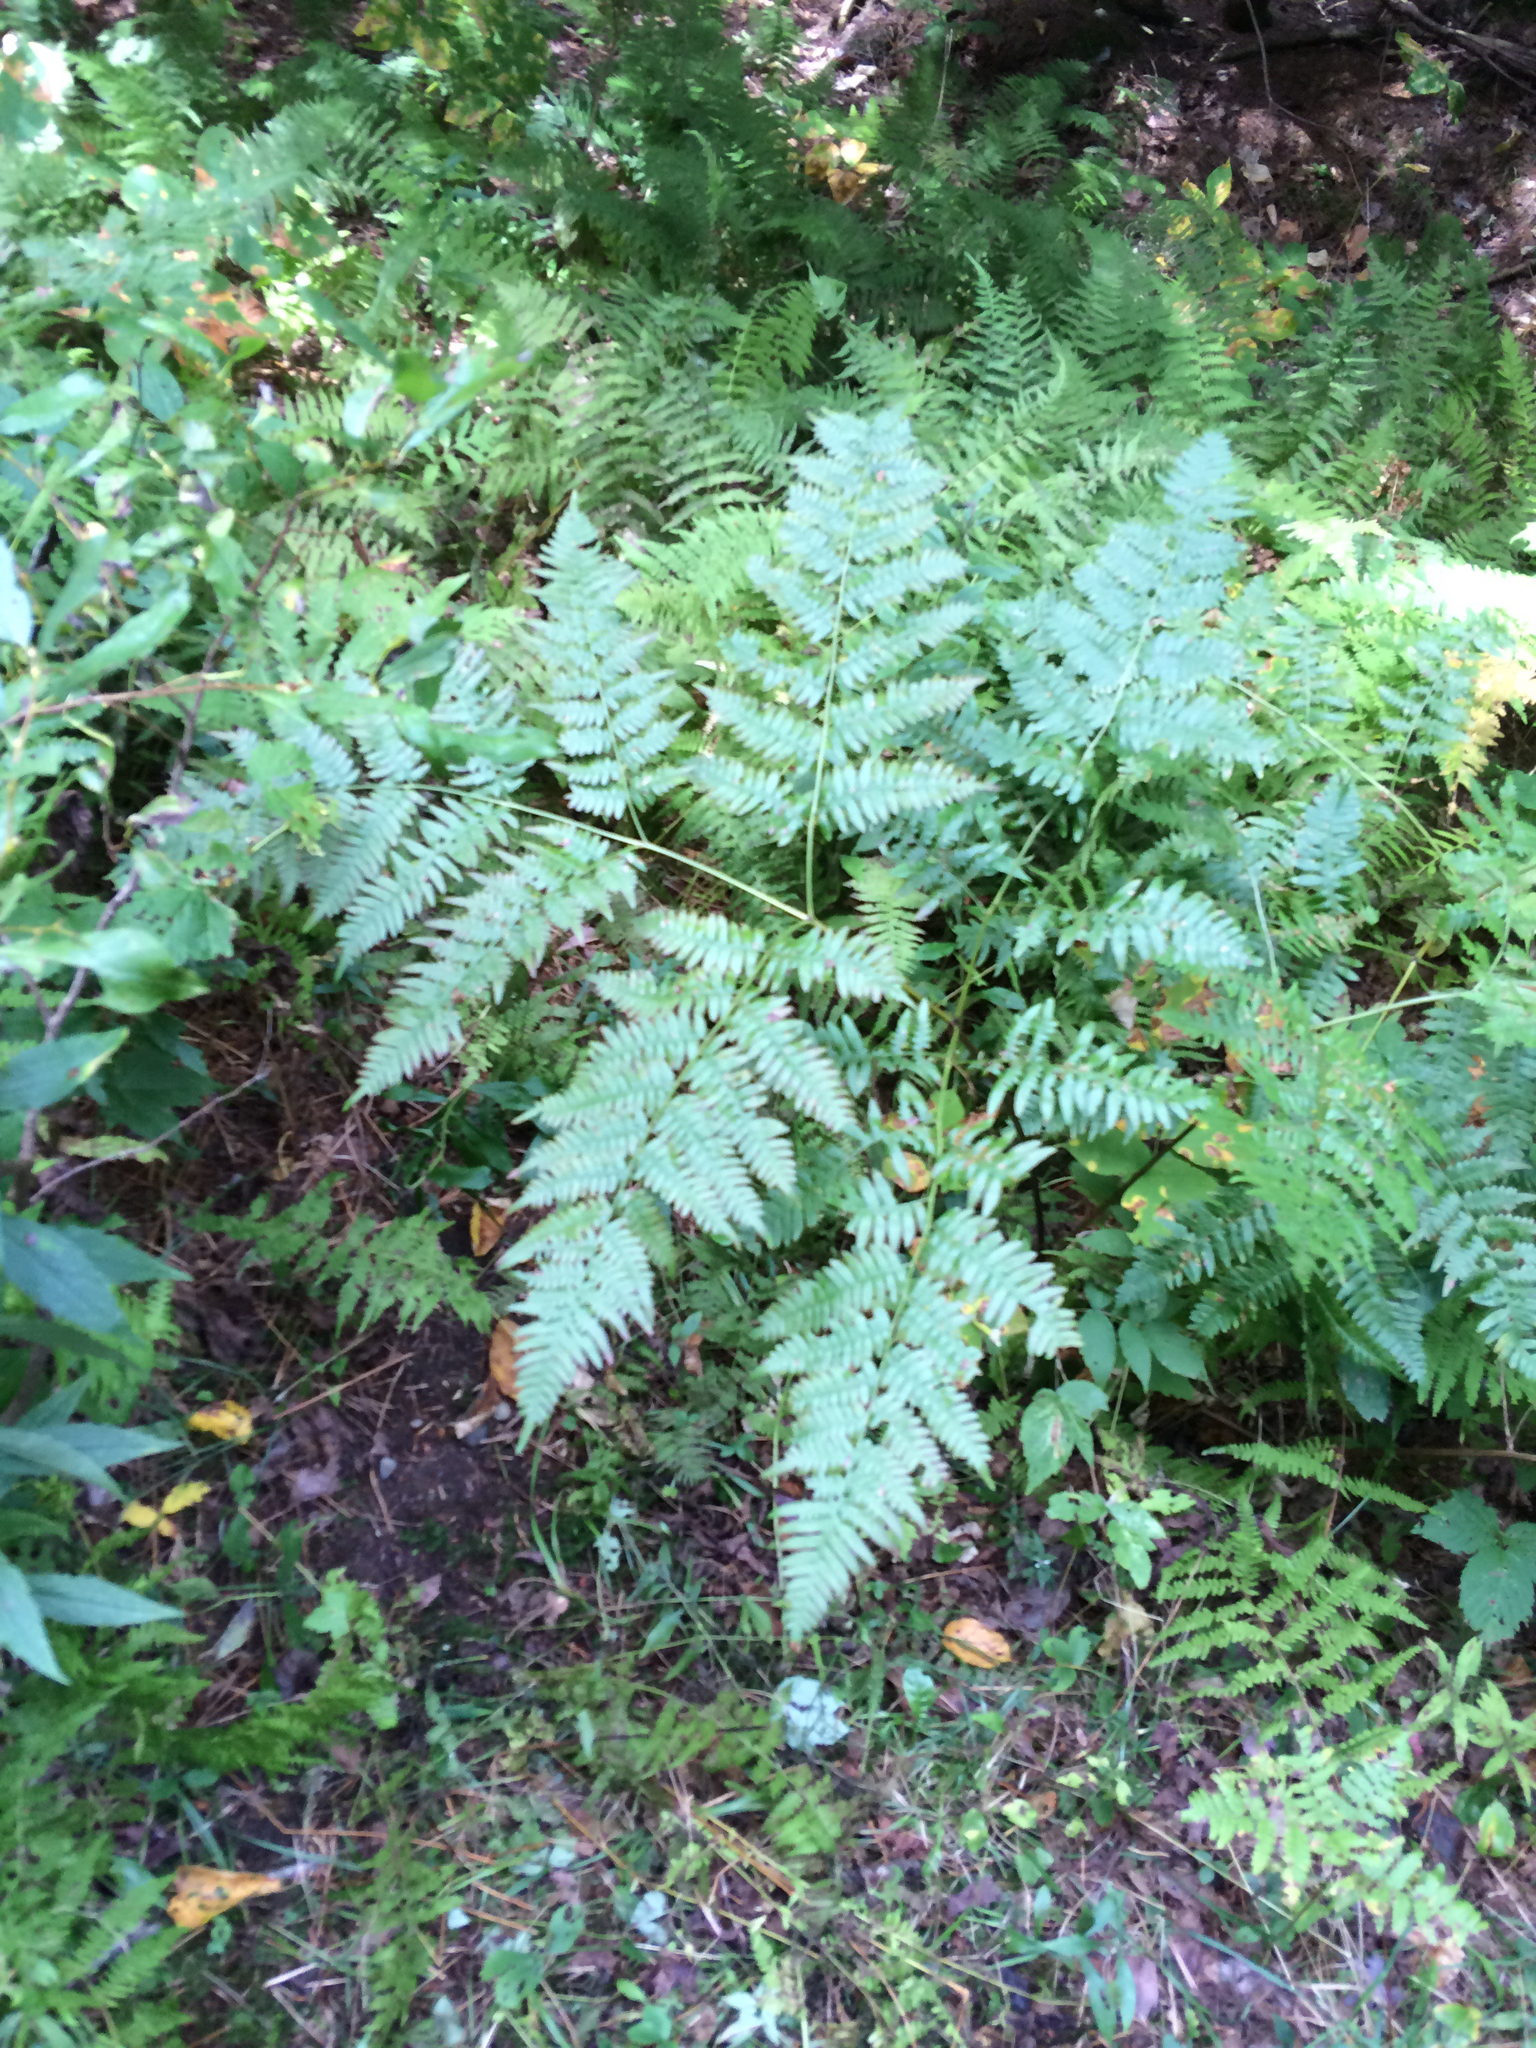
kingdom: Plantae
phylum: Tracheophyta
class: Polypodiopsida
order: Polypodiales
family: Dennstaedtiaceae
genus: Pteridium
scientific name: Pteridium aquilinum
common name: Bracken
